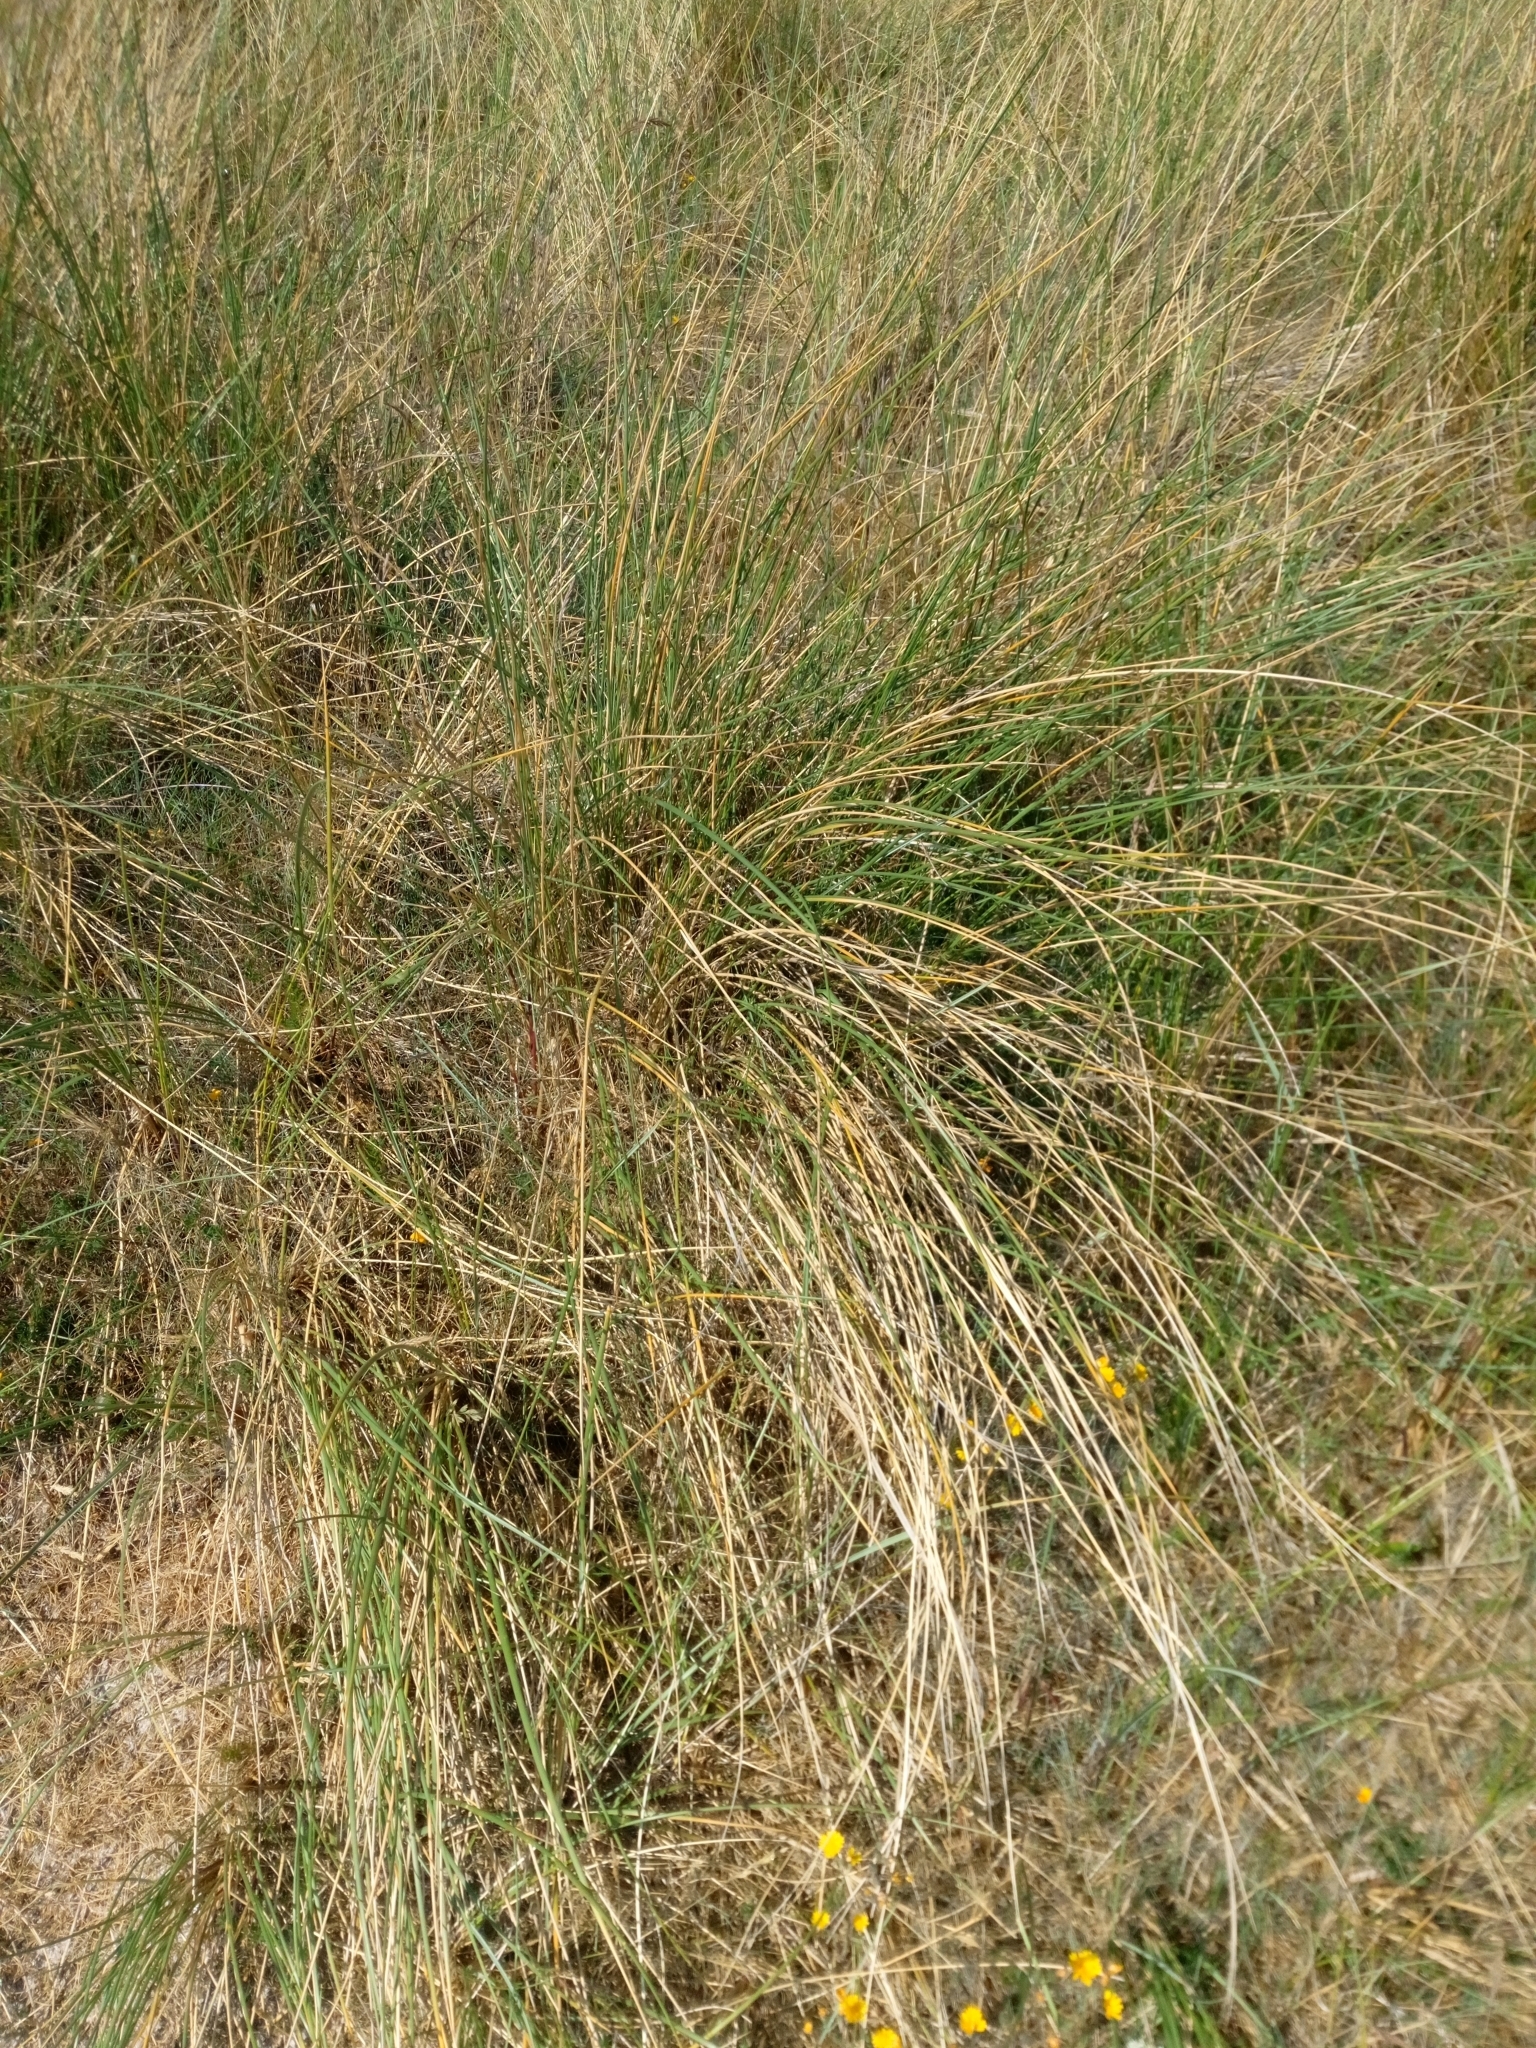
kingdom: Plantae
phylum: Tracheophyta
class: Liliopsida
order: Poales
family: Poaceae
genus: Calamagrostis
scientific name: Calamagrostis arenaria
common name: European beachgrass
